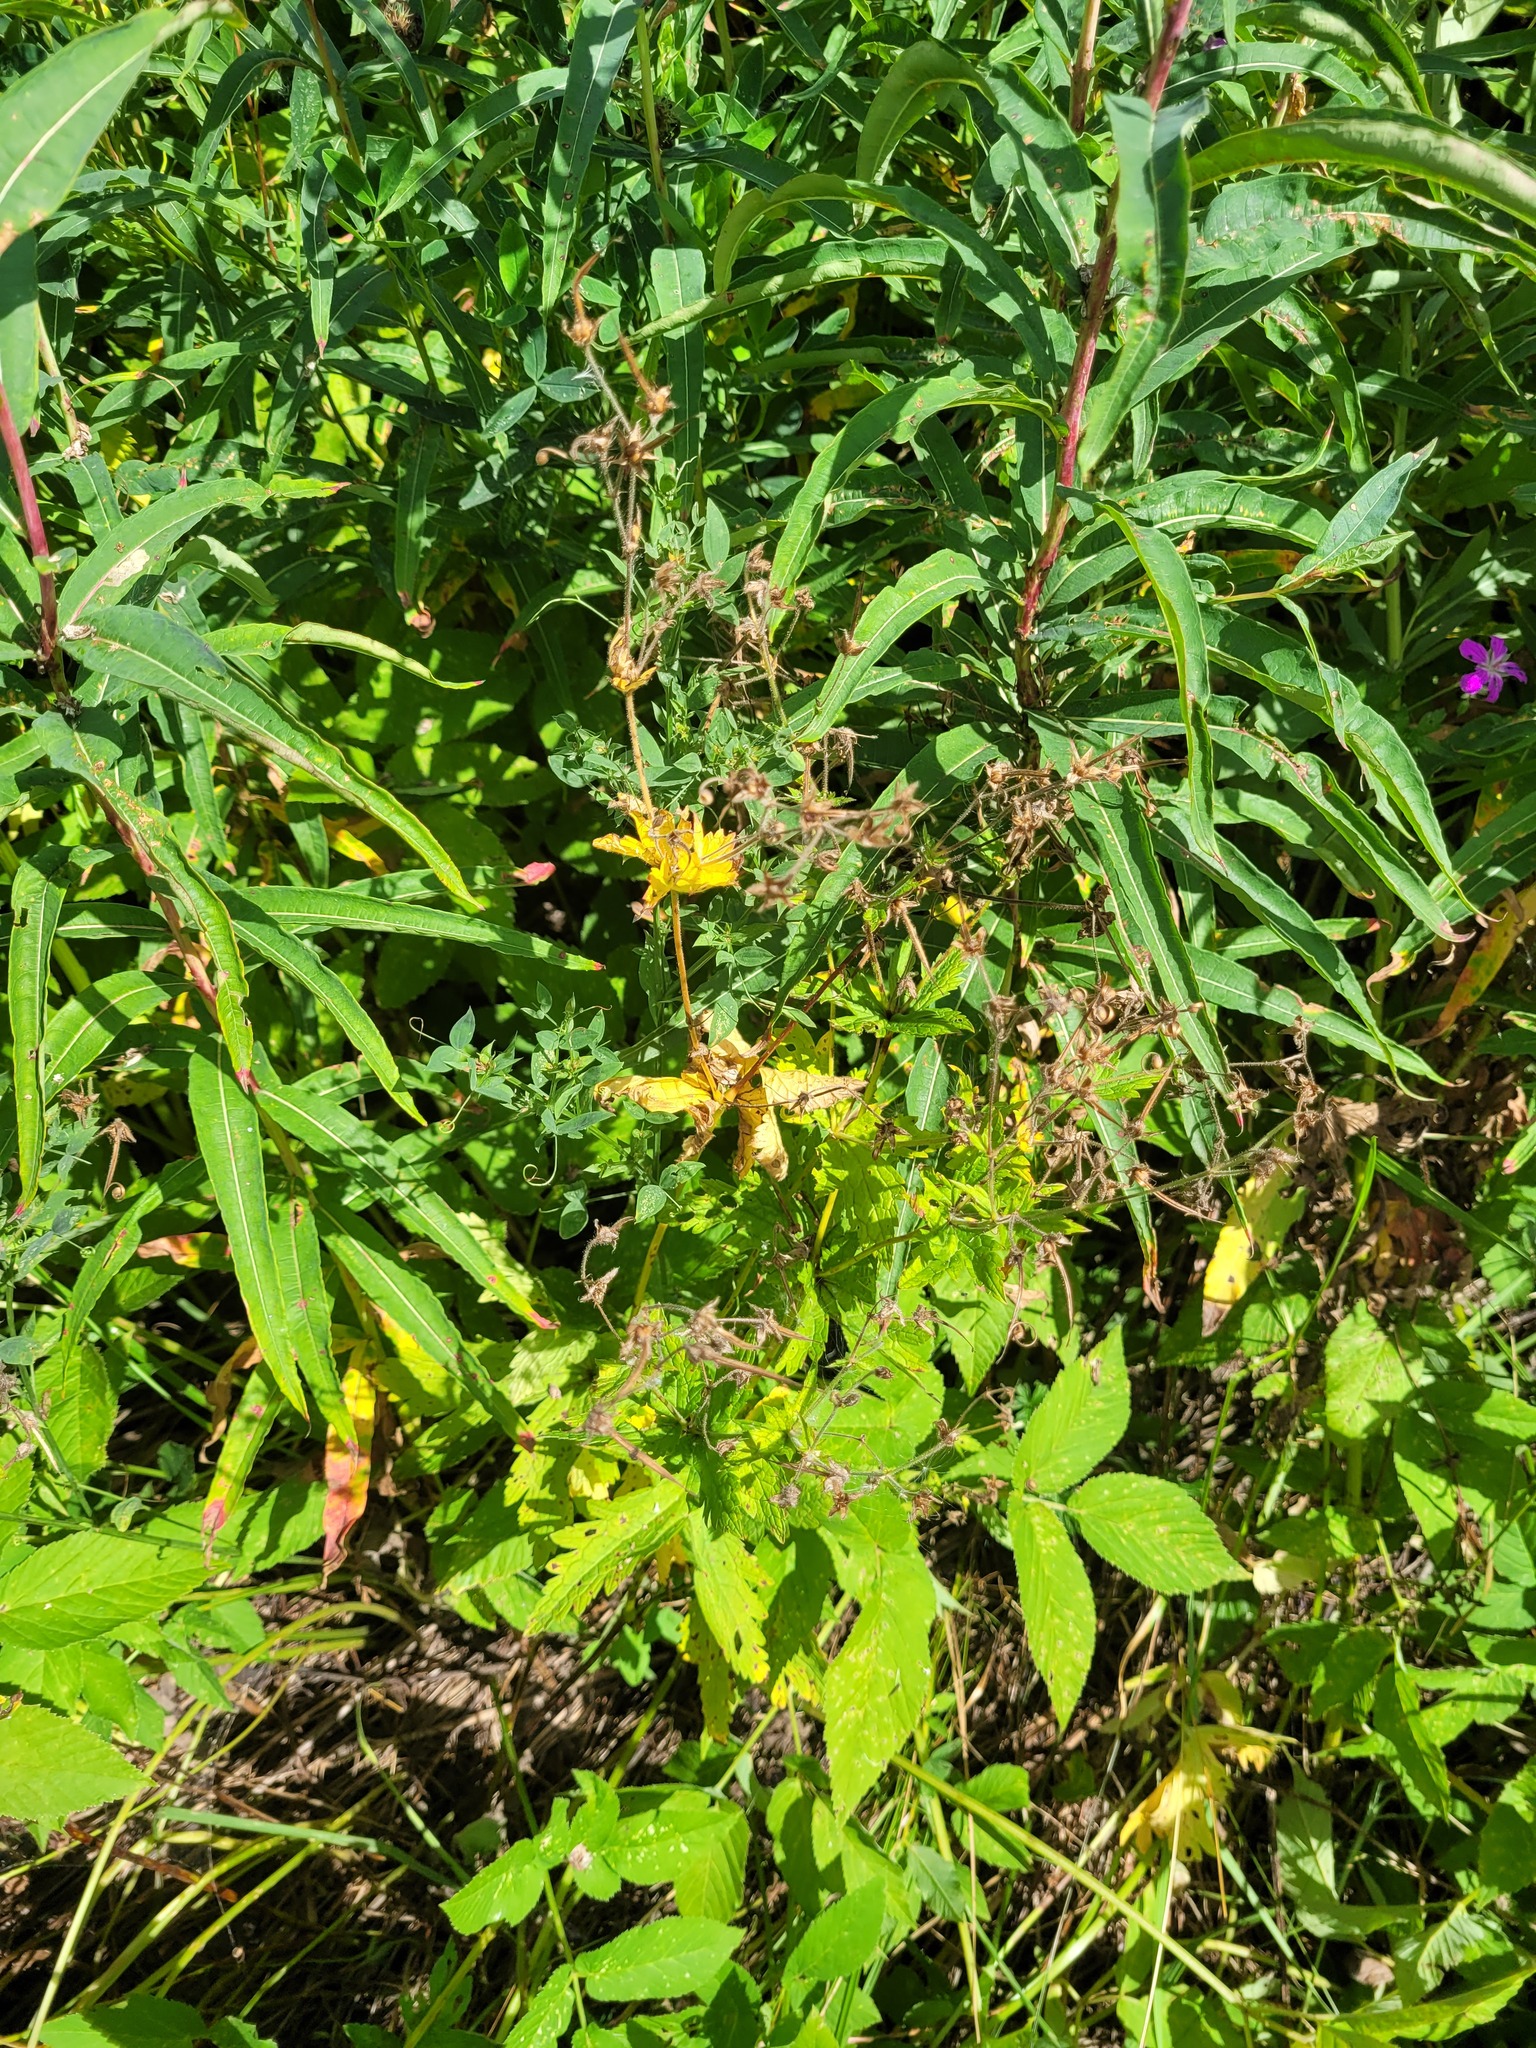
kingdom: Plantae
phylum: Tracheophyta
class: Magnoliopsida
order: Geraniales
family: Geraniaceae
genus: Geranium
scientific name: Geranium sylvaticum
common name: Wood crane's-bill
